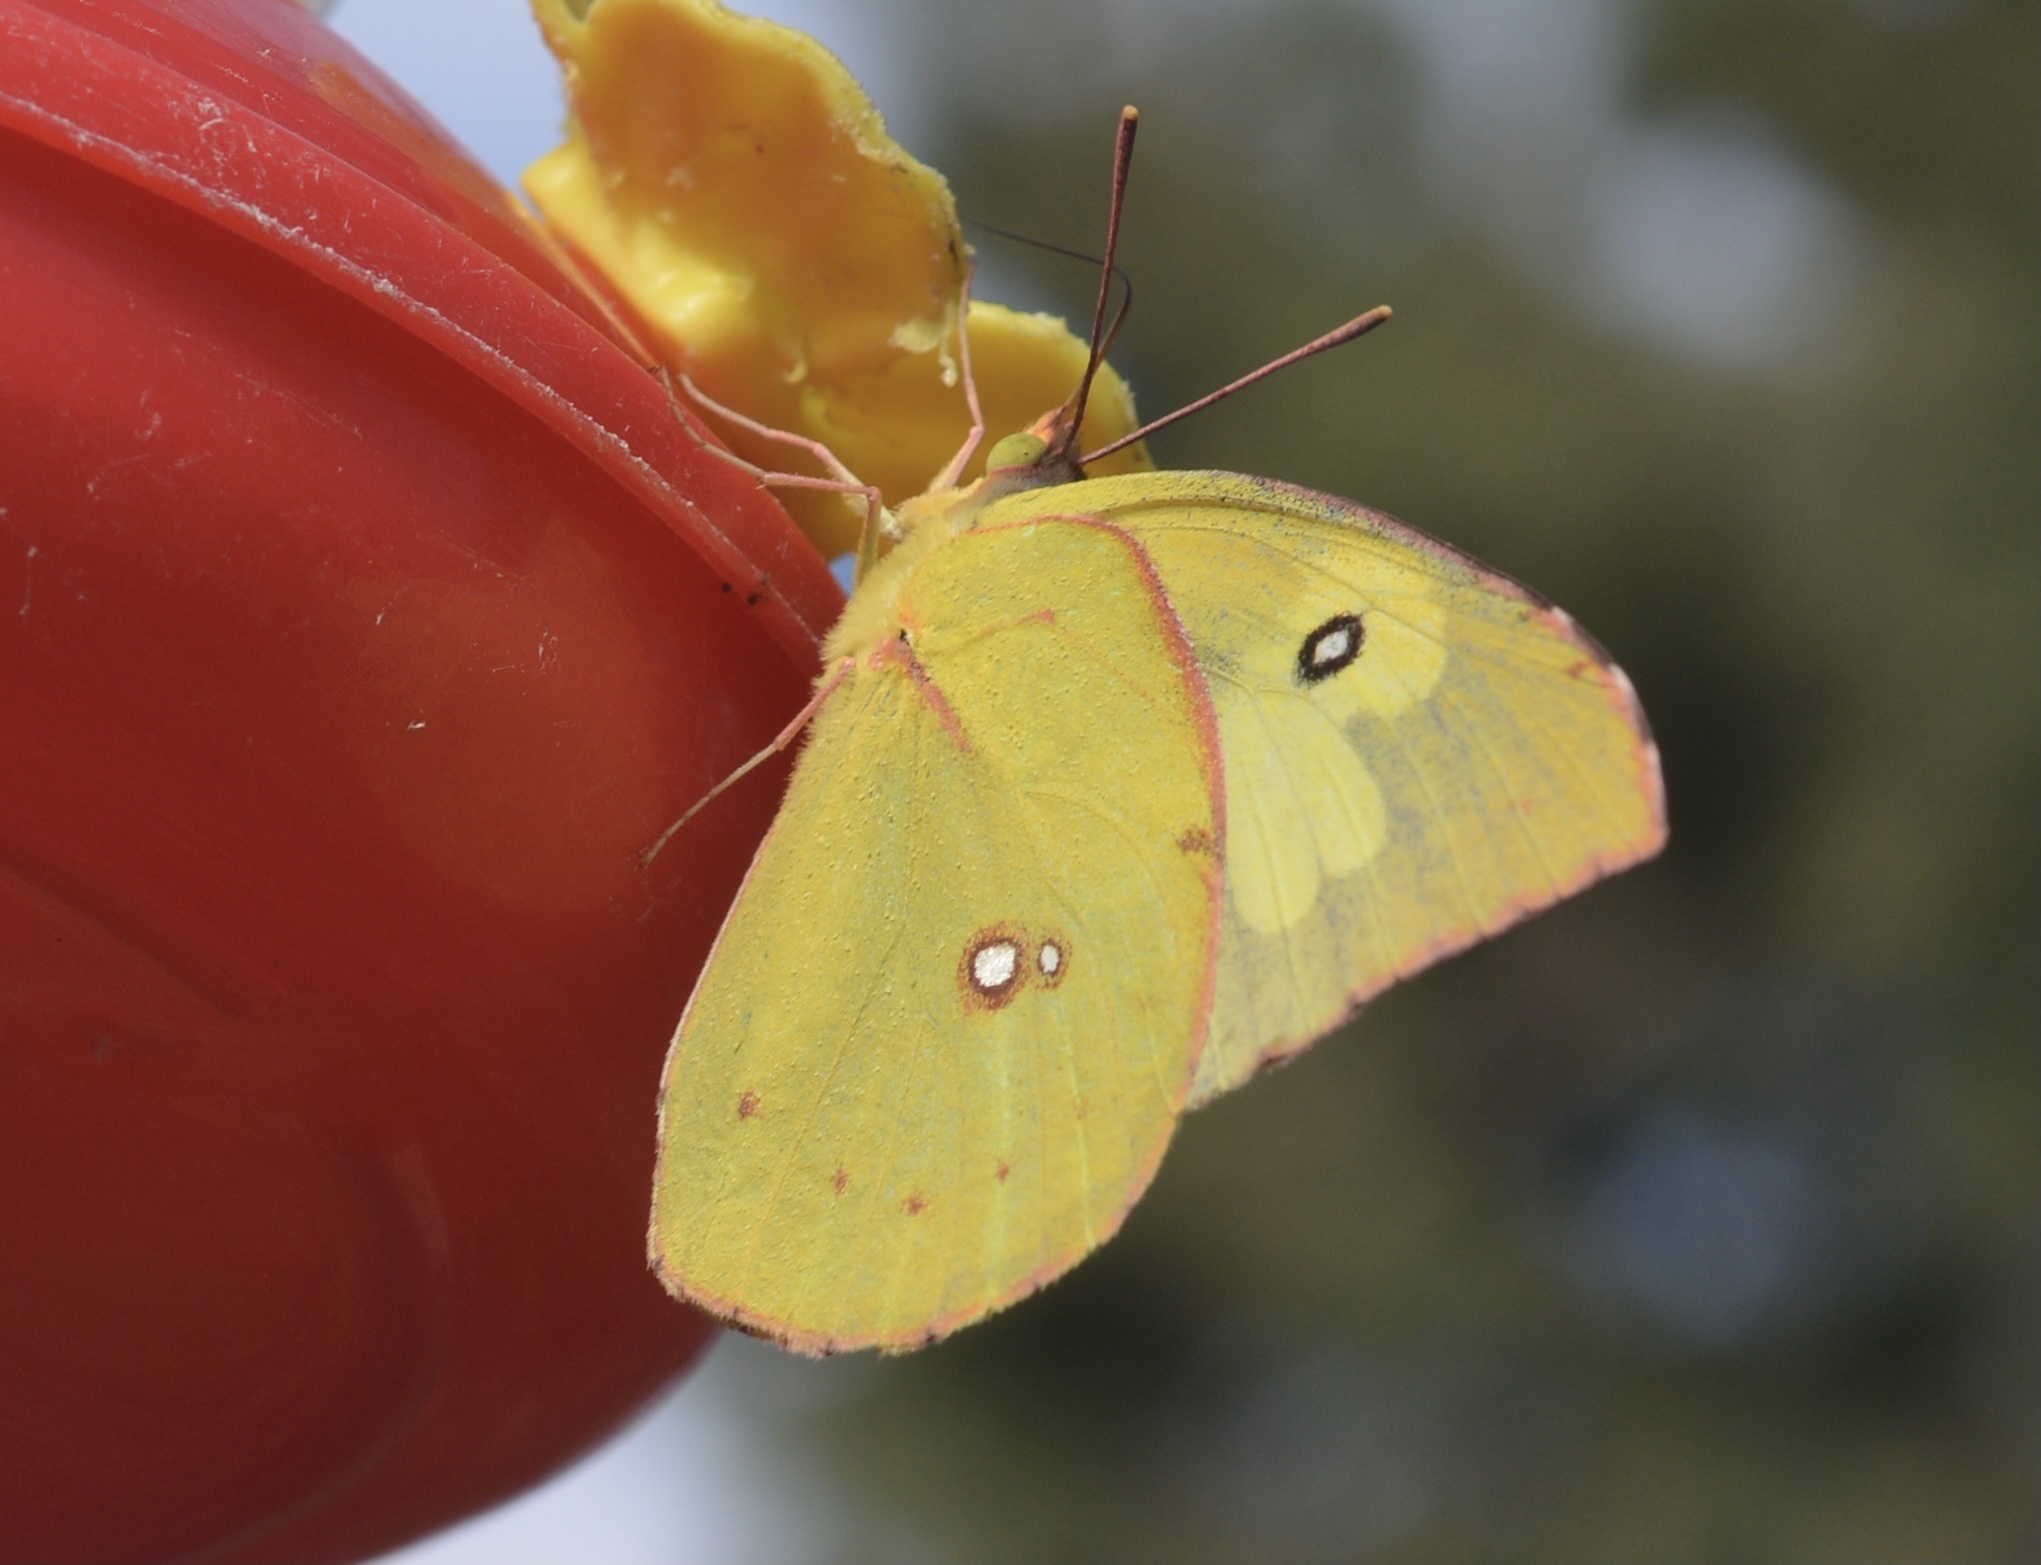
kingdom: Animalia
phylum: Arthropoda
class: Insecta
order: Lepidoptera
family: Pieridae
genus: Zerene
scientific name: Zerene cesonia
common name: Southern dogface
